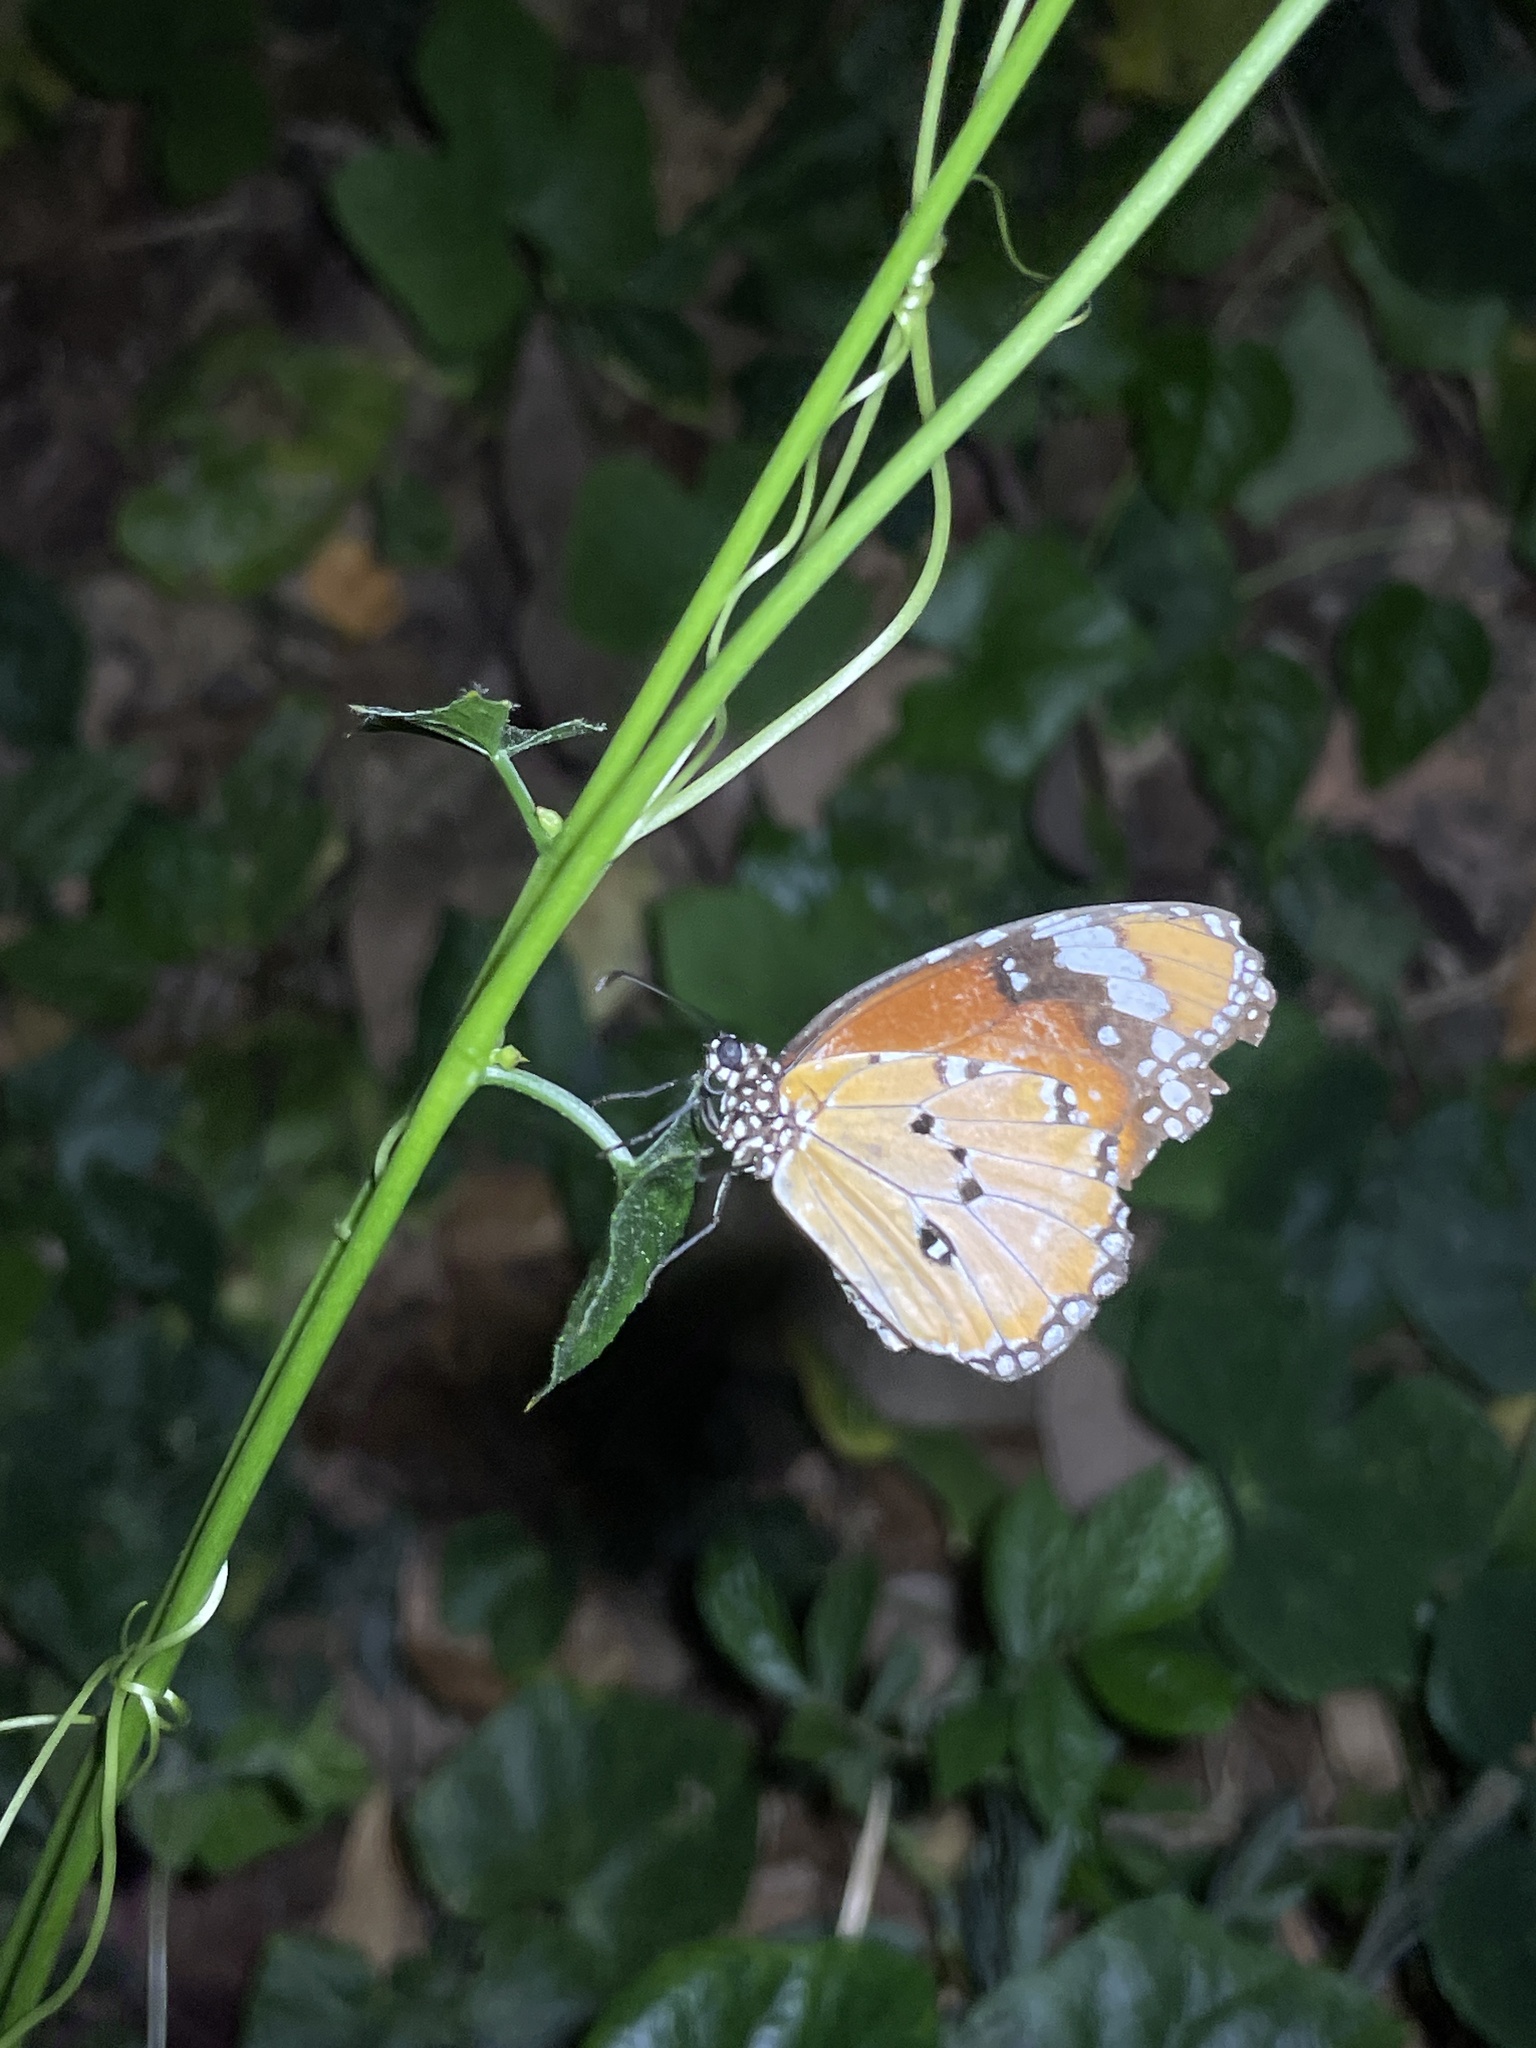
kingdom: Animalia
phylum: Arthropoda
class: Insecta
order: Lepidoptera
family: Nymphalidae
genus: Danaus
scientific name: Danaus chrysippus
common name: Plain tiger
